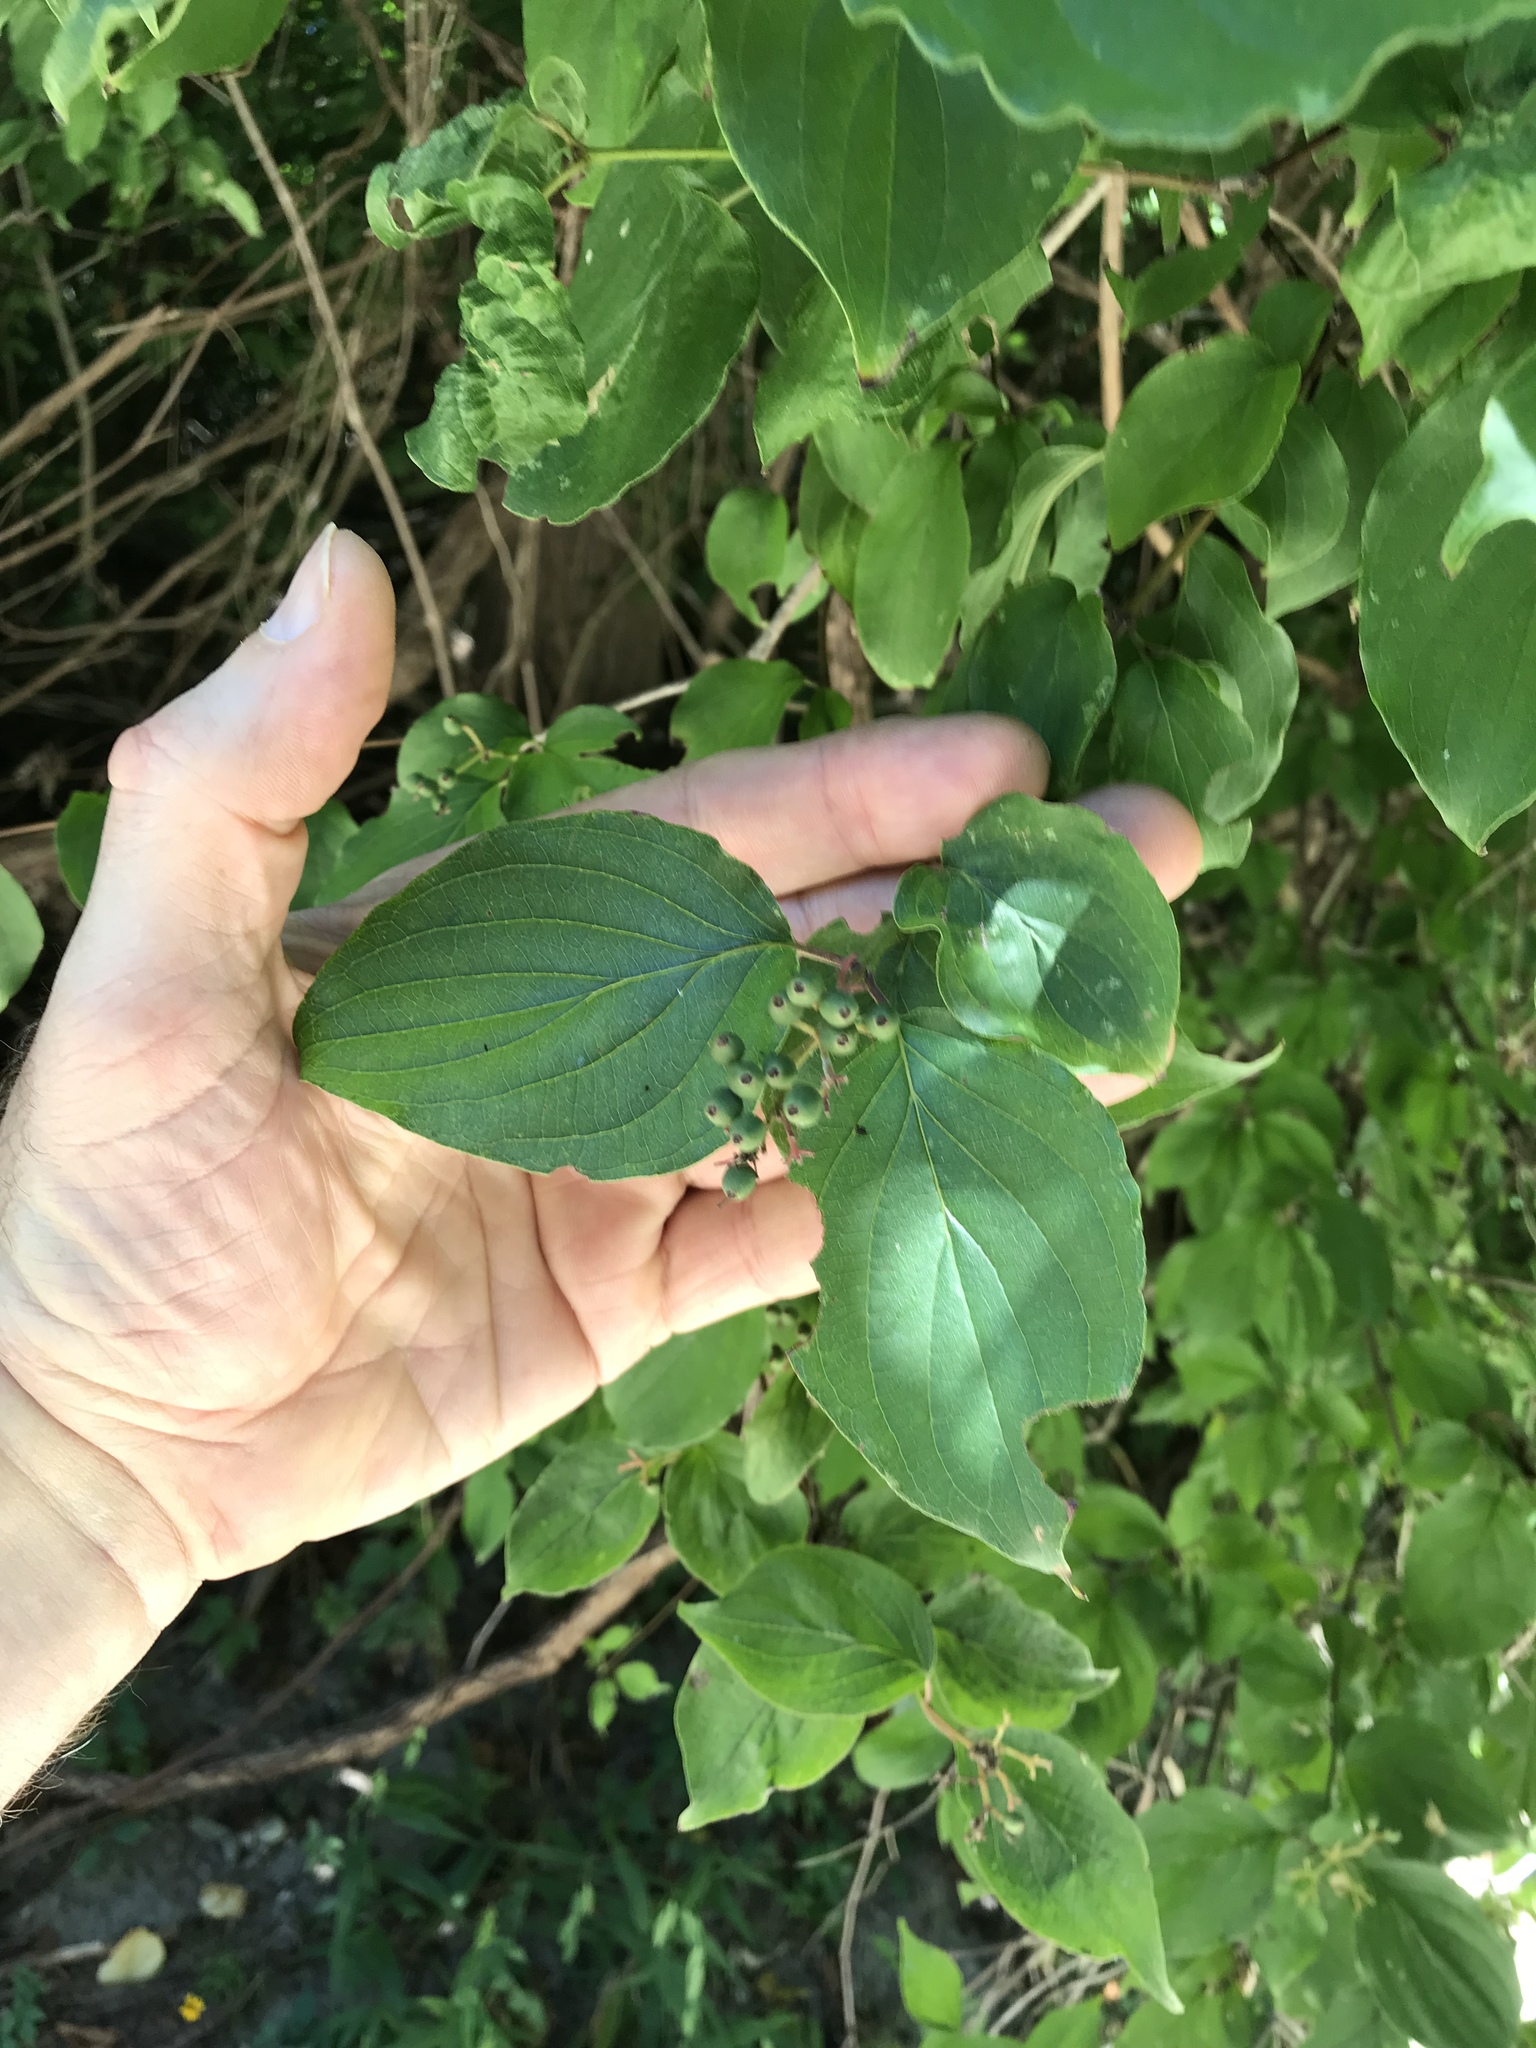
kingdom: Plantae
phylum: Tracheophyta
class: Magnoliopsida
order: Cornales
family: Cornaceae
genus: Cornus
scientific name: Cornus drummondii
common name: Rough-leaf dogwood
